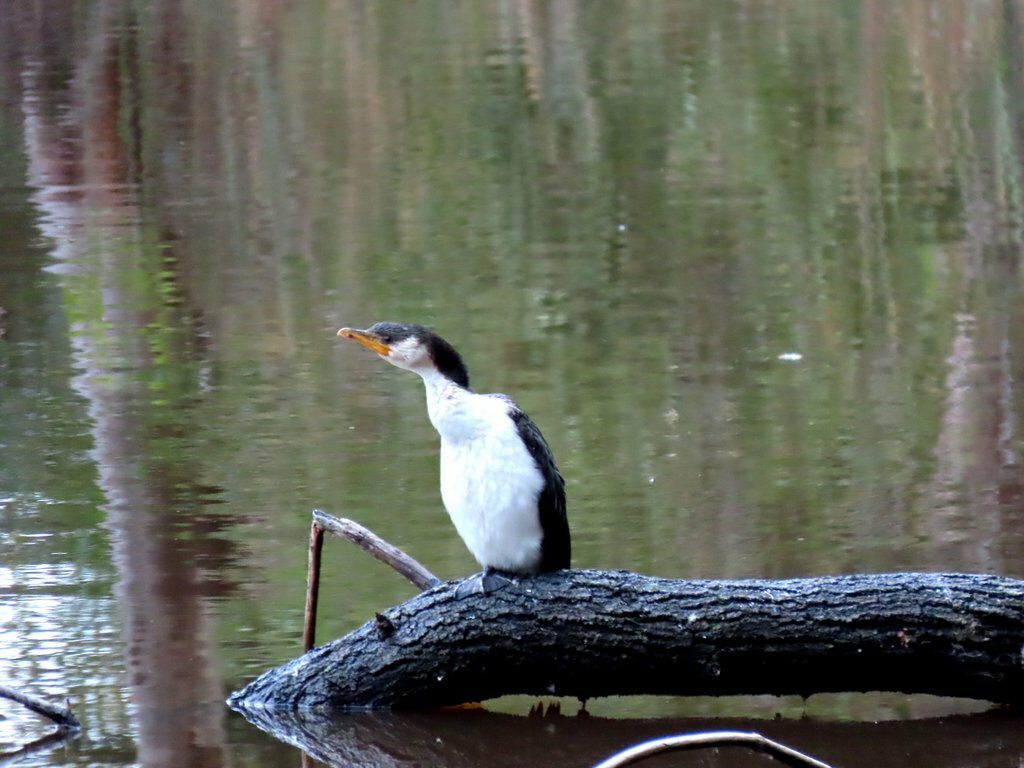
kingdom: Animalia
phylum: Chordata
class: Aves
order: Suliformes
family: Phalacrocoracidae
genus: Microcarbo
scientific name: Microcarbo melanoleucos
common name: Little pied cormorant
